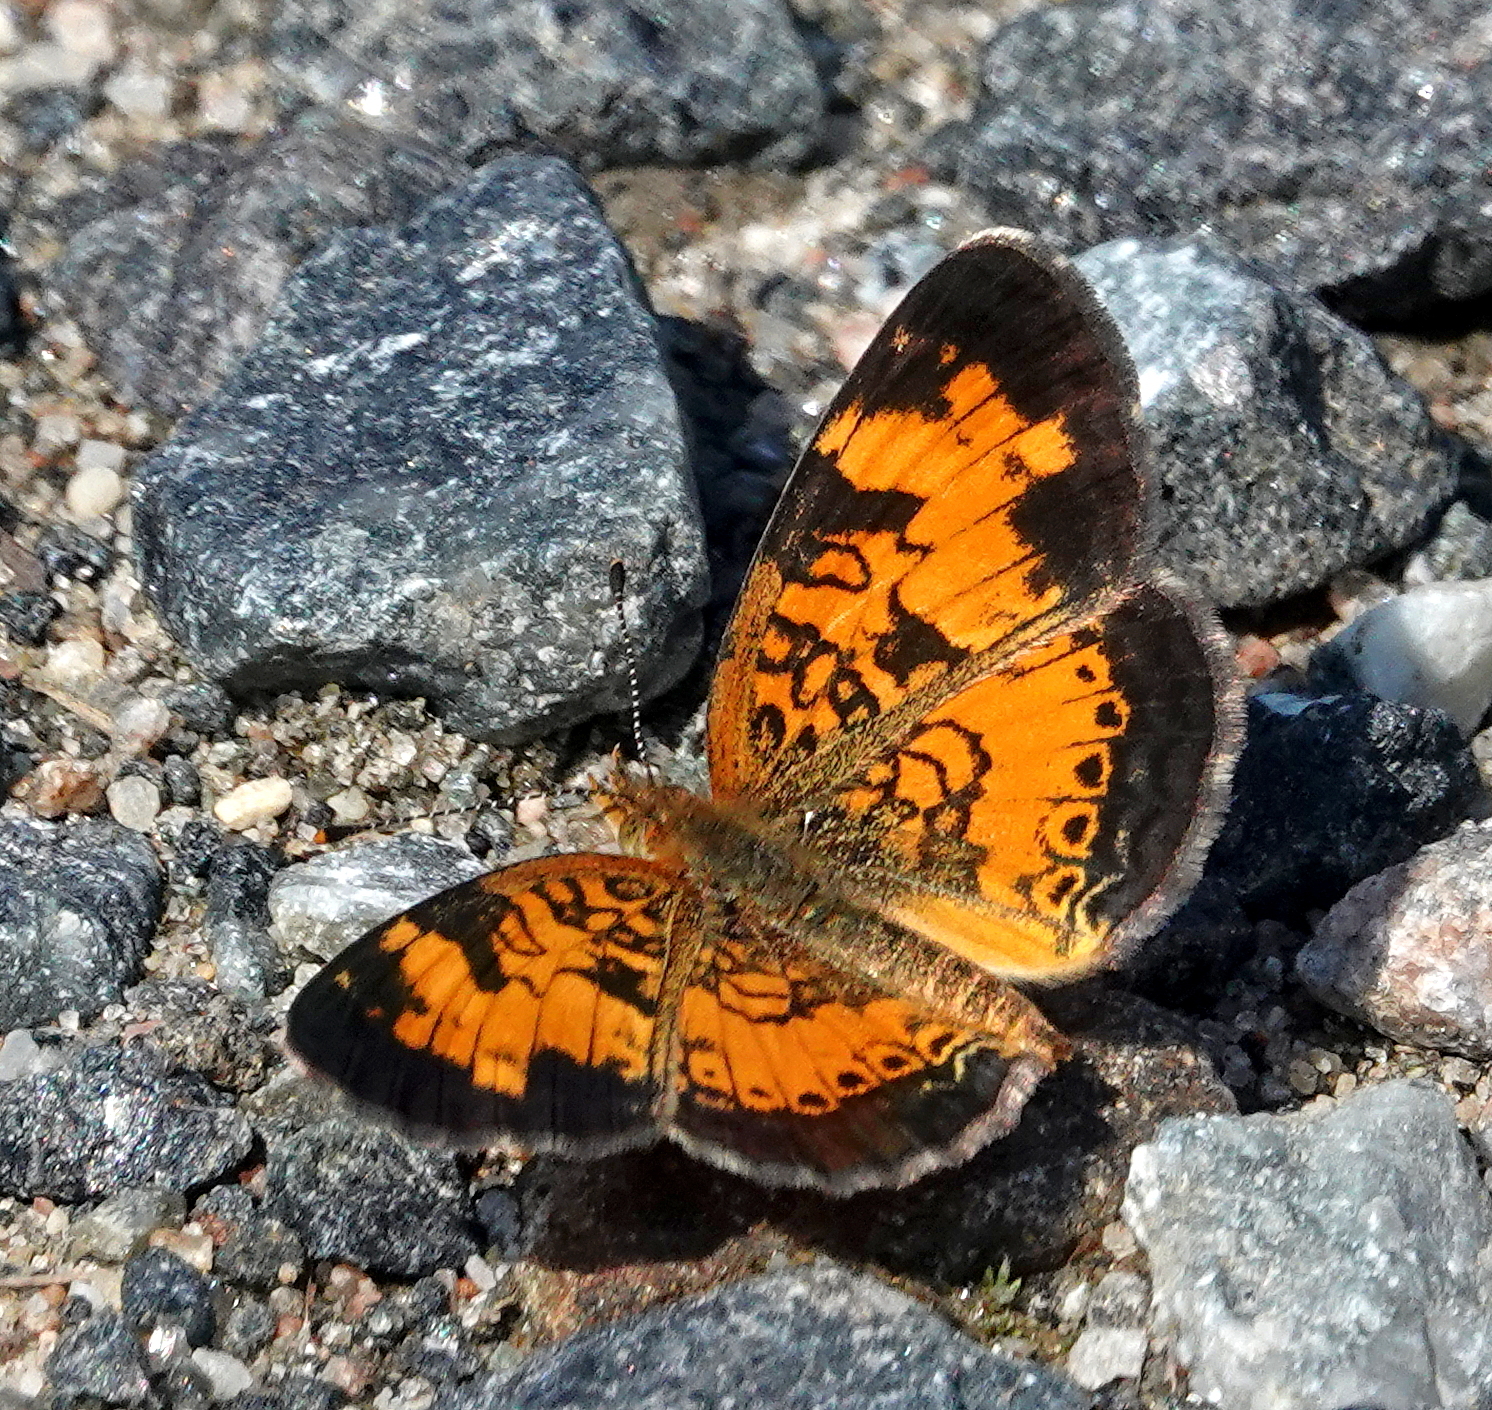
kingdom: Animalia
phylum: Arthropoda
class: Insecta
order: Lepidoptera
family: Nymphalidae
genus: Phyciodes
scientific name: Phyciodes tharos
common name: Pearl crescent
